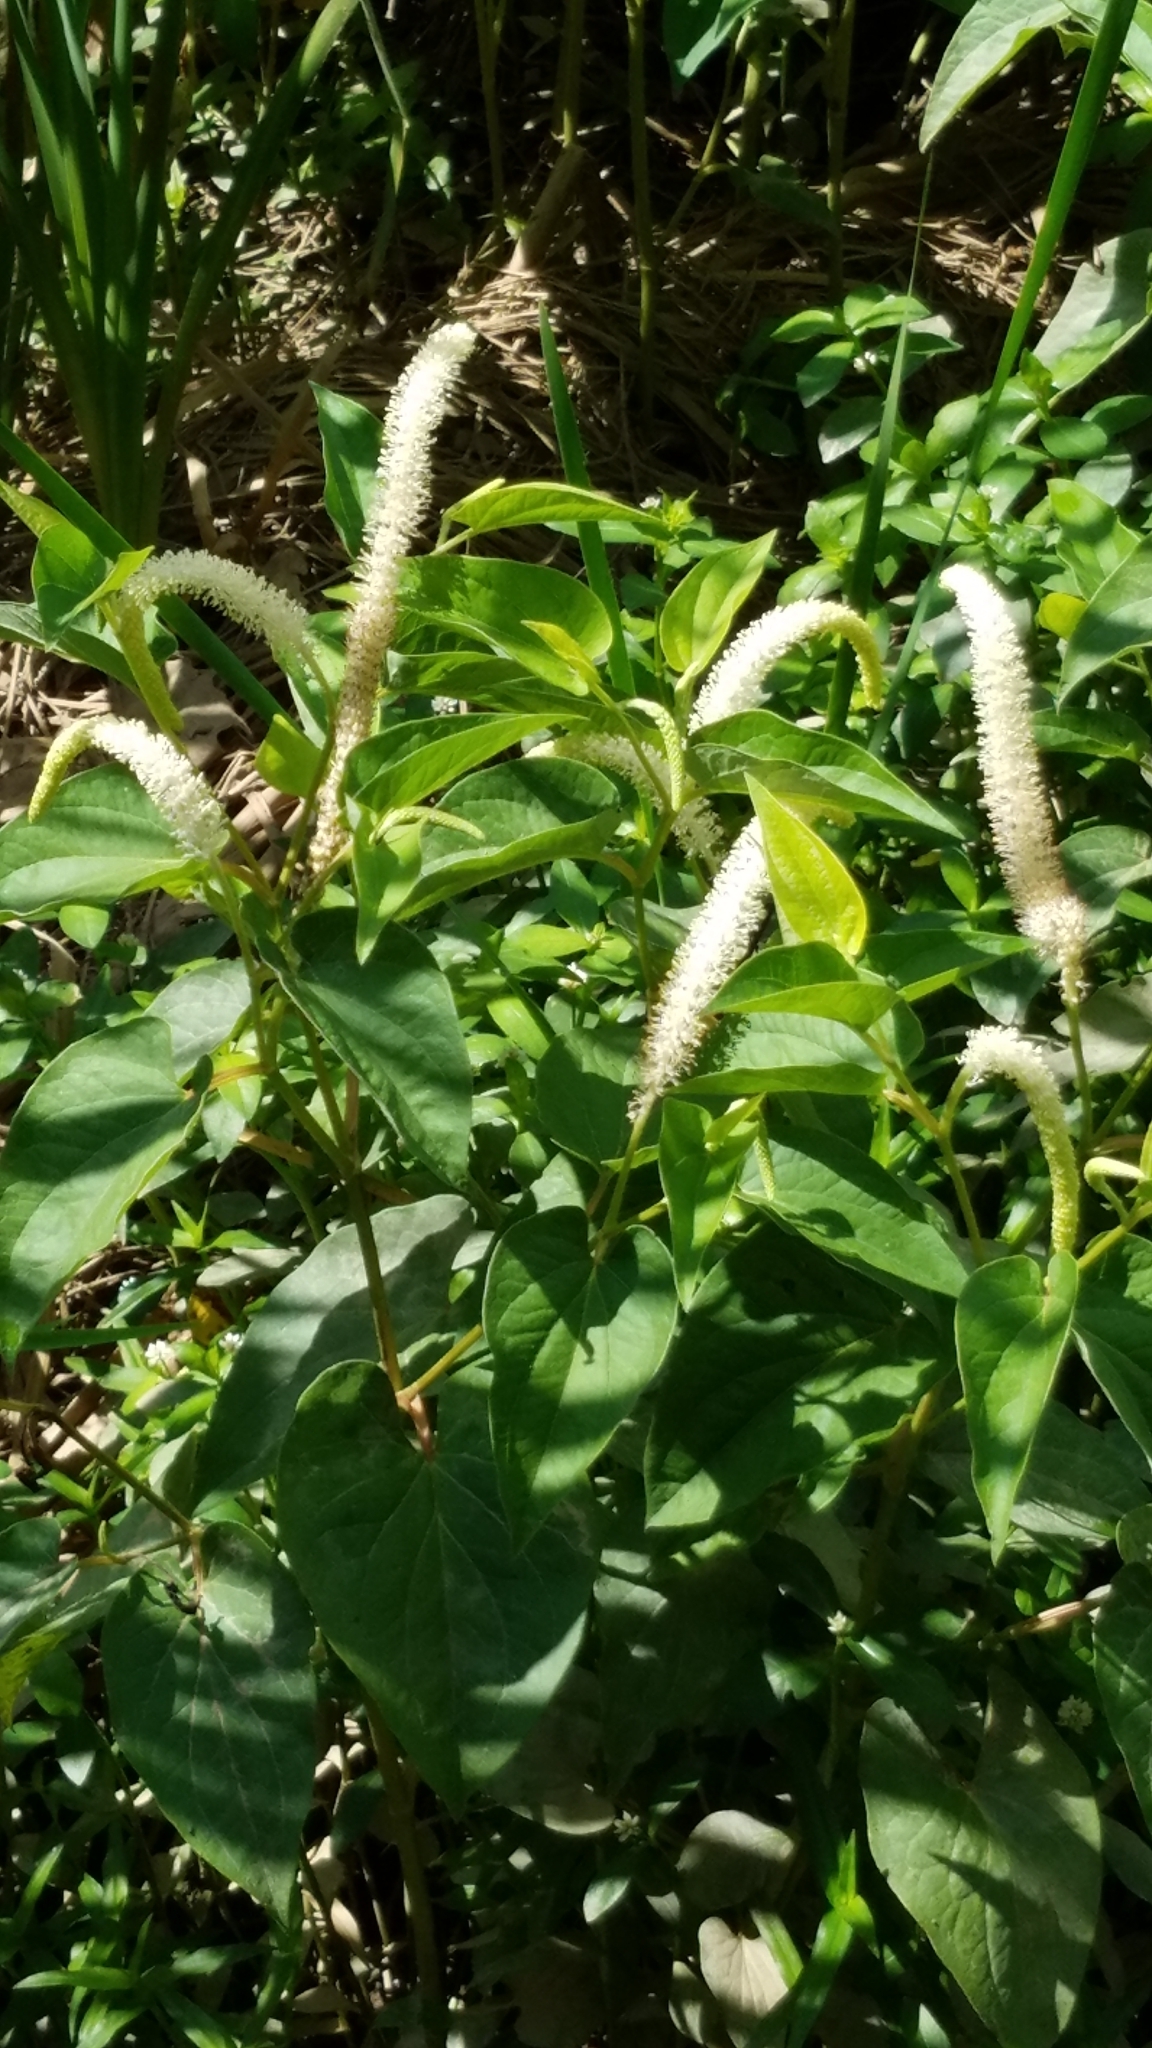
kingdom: Plantae
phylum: Tracheophyta
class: Magnoliopsida
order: Piperales
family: Saururaceae
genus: Saururus
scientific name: Saururus cernuus
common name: Lizard's-tail
